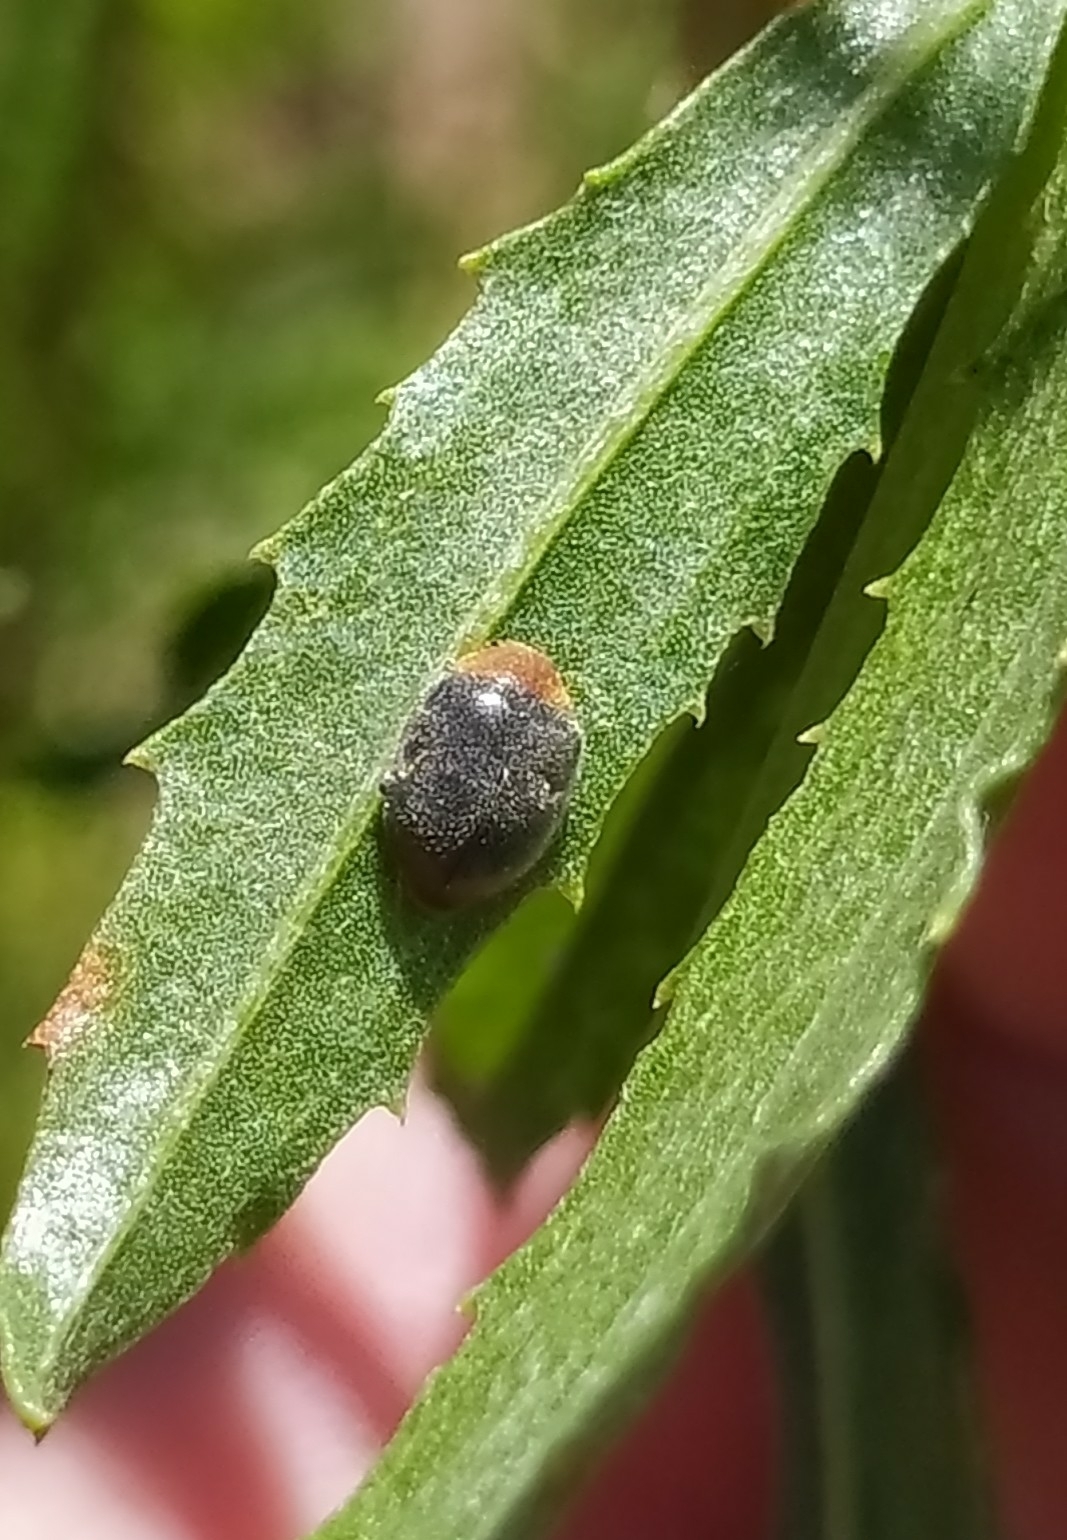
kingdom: Animalia
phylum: Arthropoda
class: Insecta
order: Coleoptera
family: Coccinellidae
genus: Cryptolaemus
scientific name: Cryptolaemus montrouzieri
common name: Mealybug destroyer
